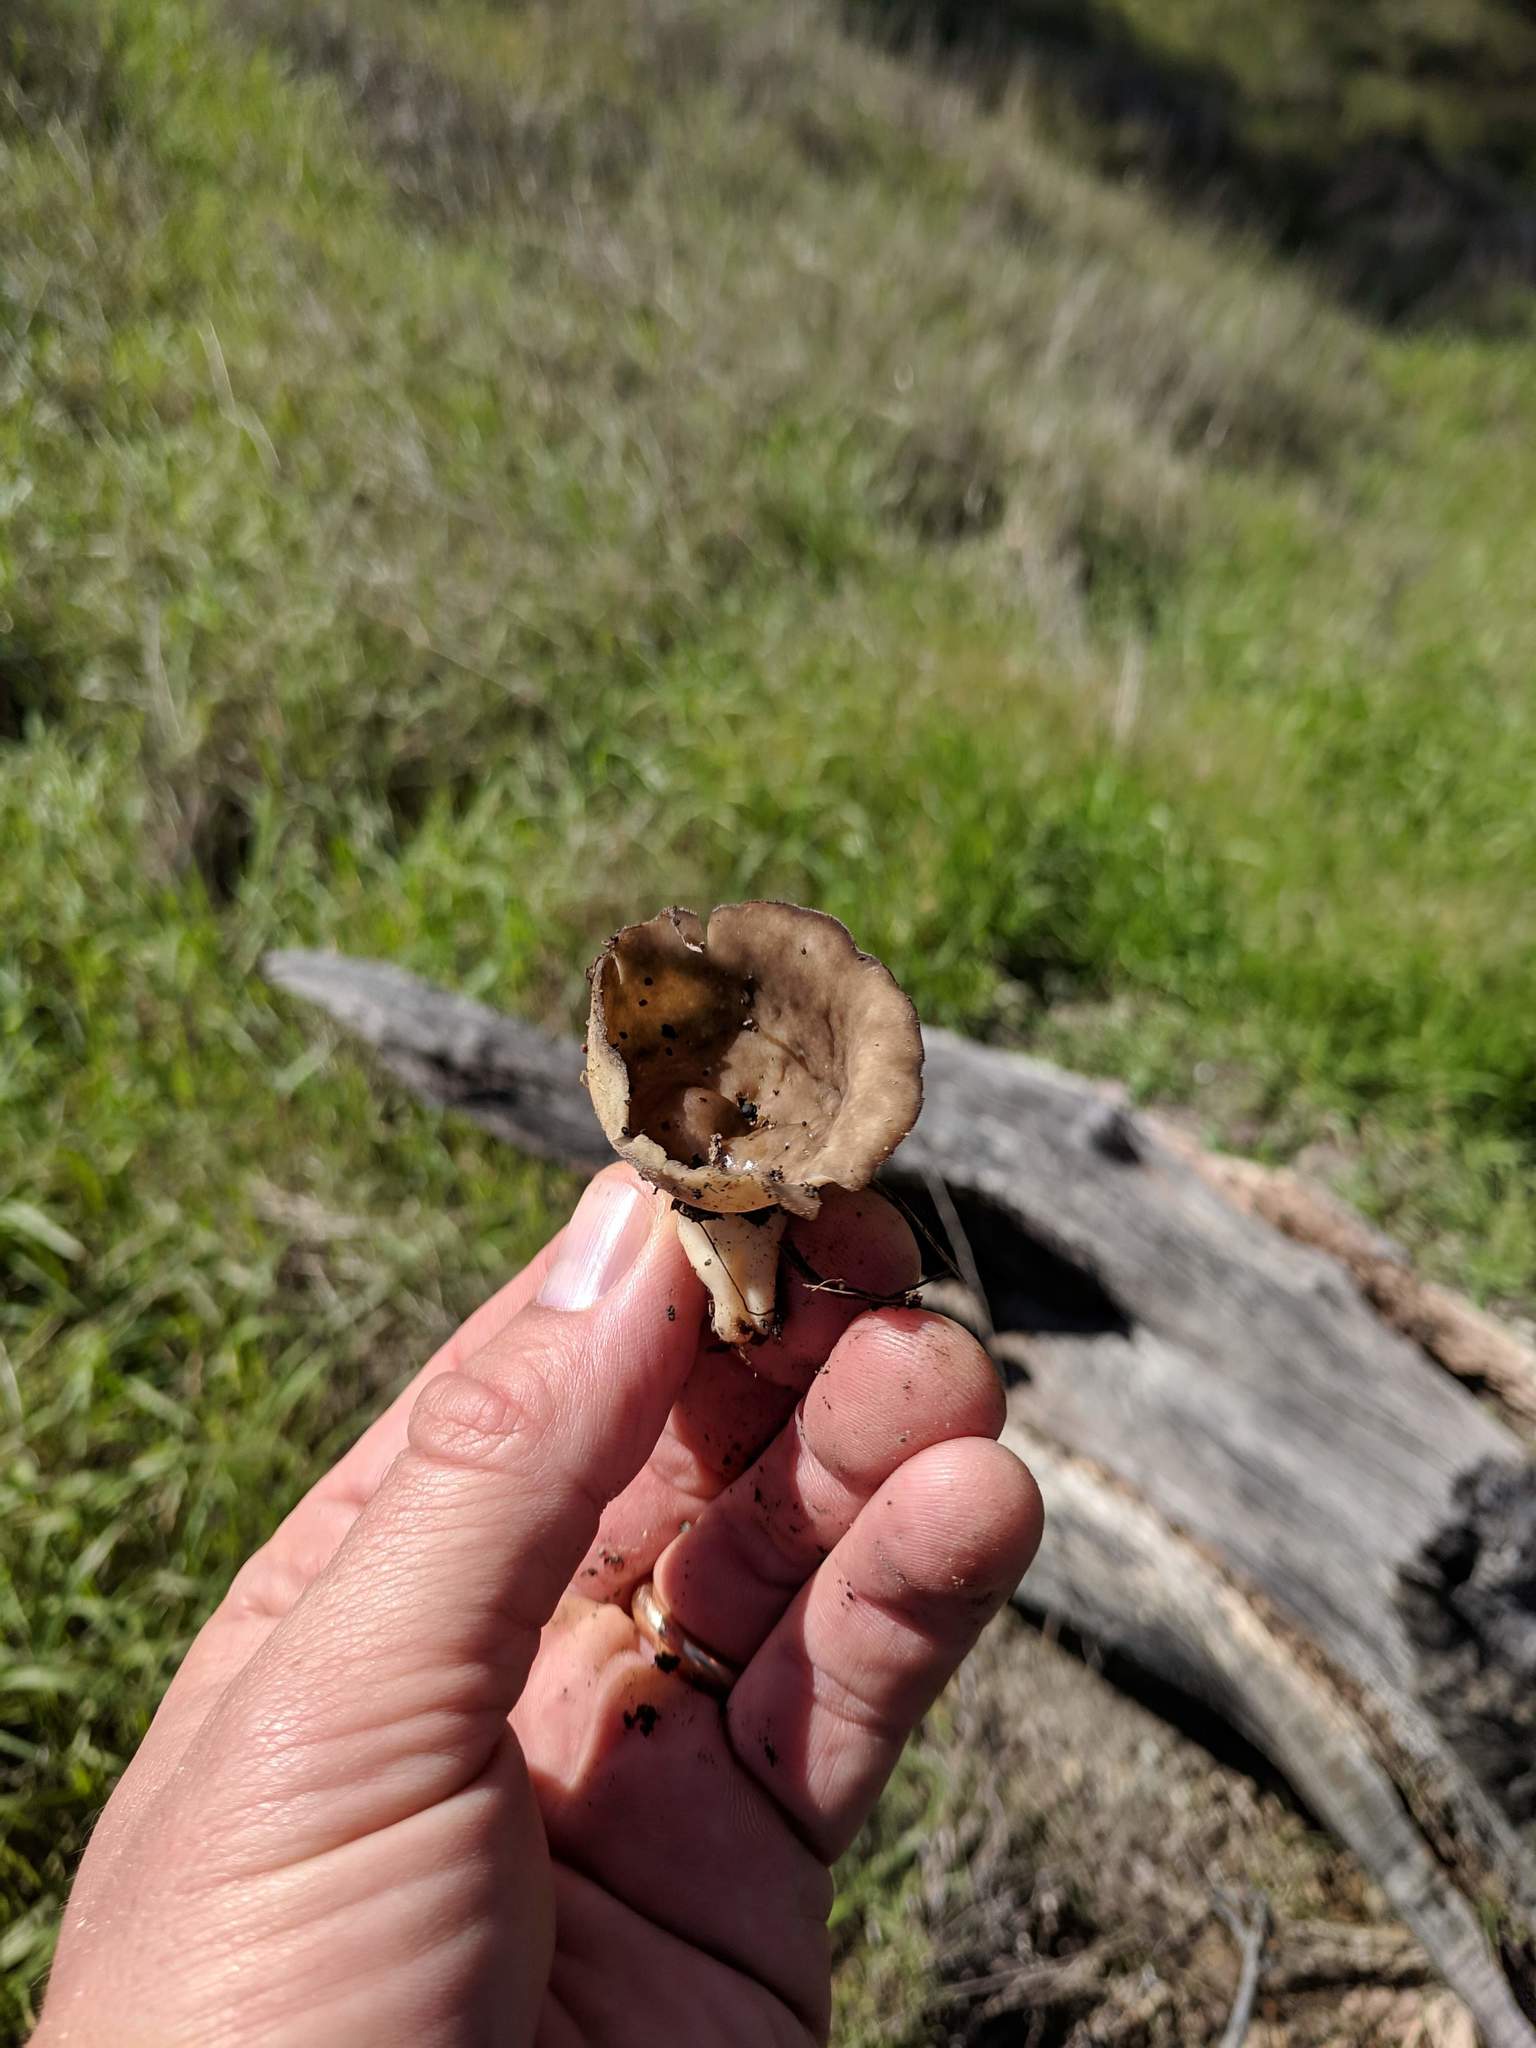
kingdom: Fungi
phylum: Ascomycota
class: Pezizomycetes
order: Pezizales
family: Helvellaceae
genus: Helvella
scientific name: Helvella acetabulum
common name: Vinegar cup
